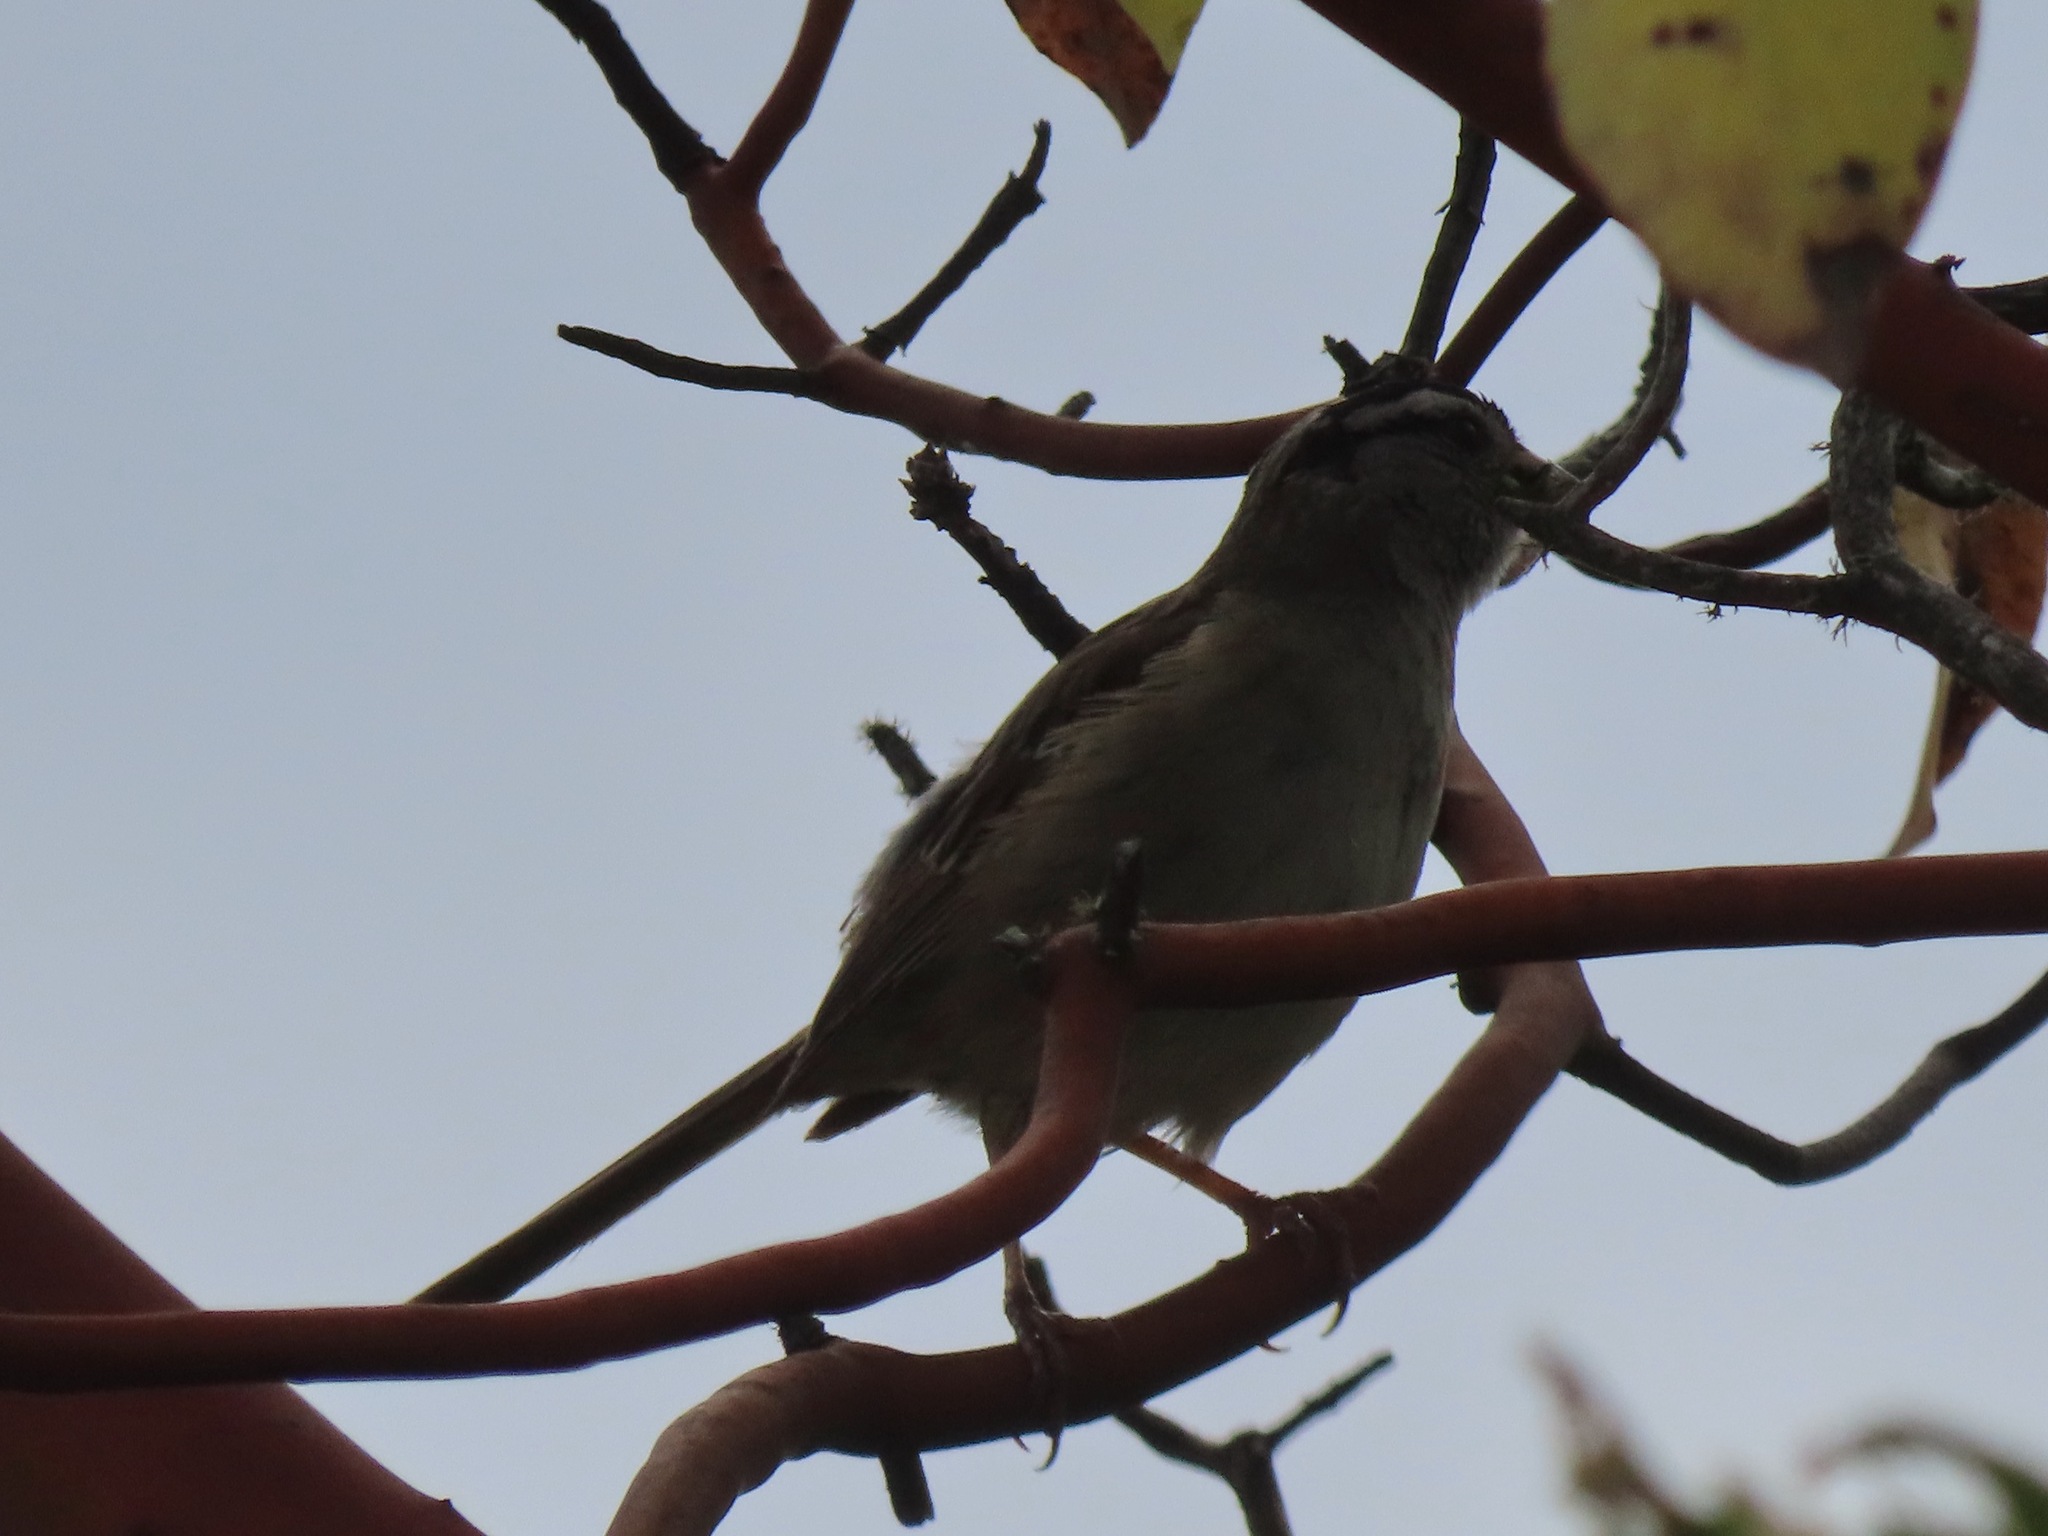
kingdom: Animalia
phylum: Chordata
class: Aves
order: Passeriformes
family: Passerellidae
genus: Zonotrichia
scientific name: Zonotrichia leucophrys
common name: White-crowned sparrow
